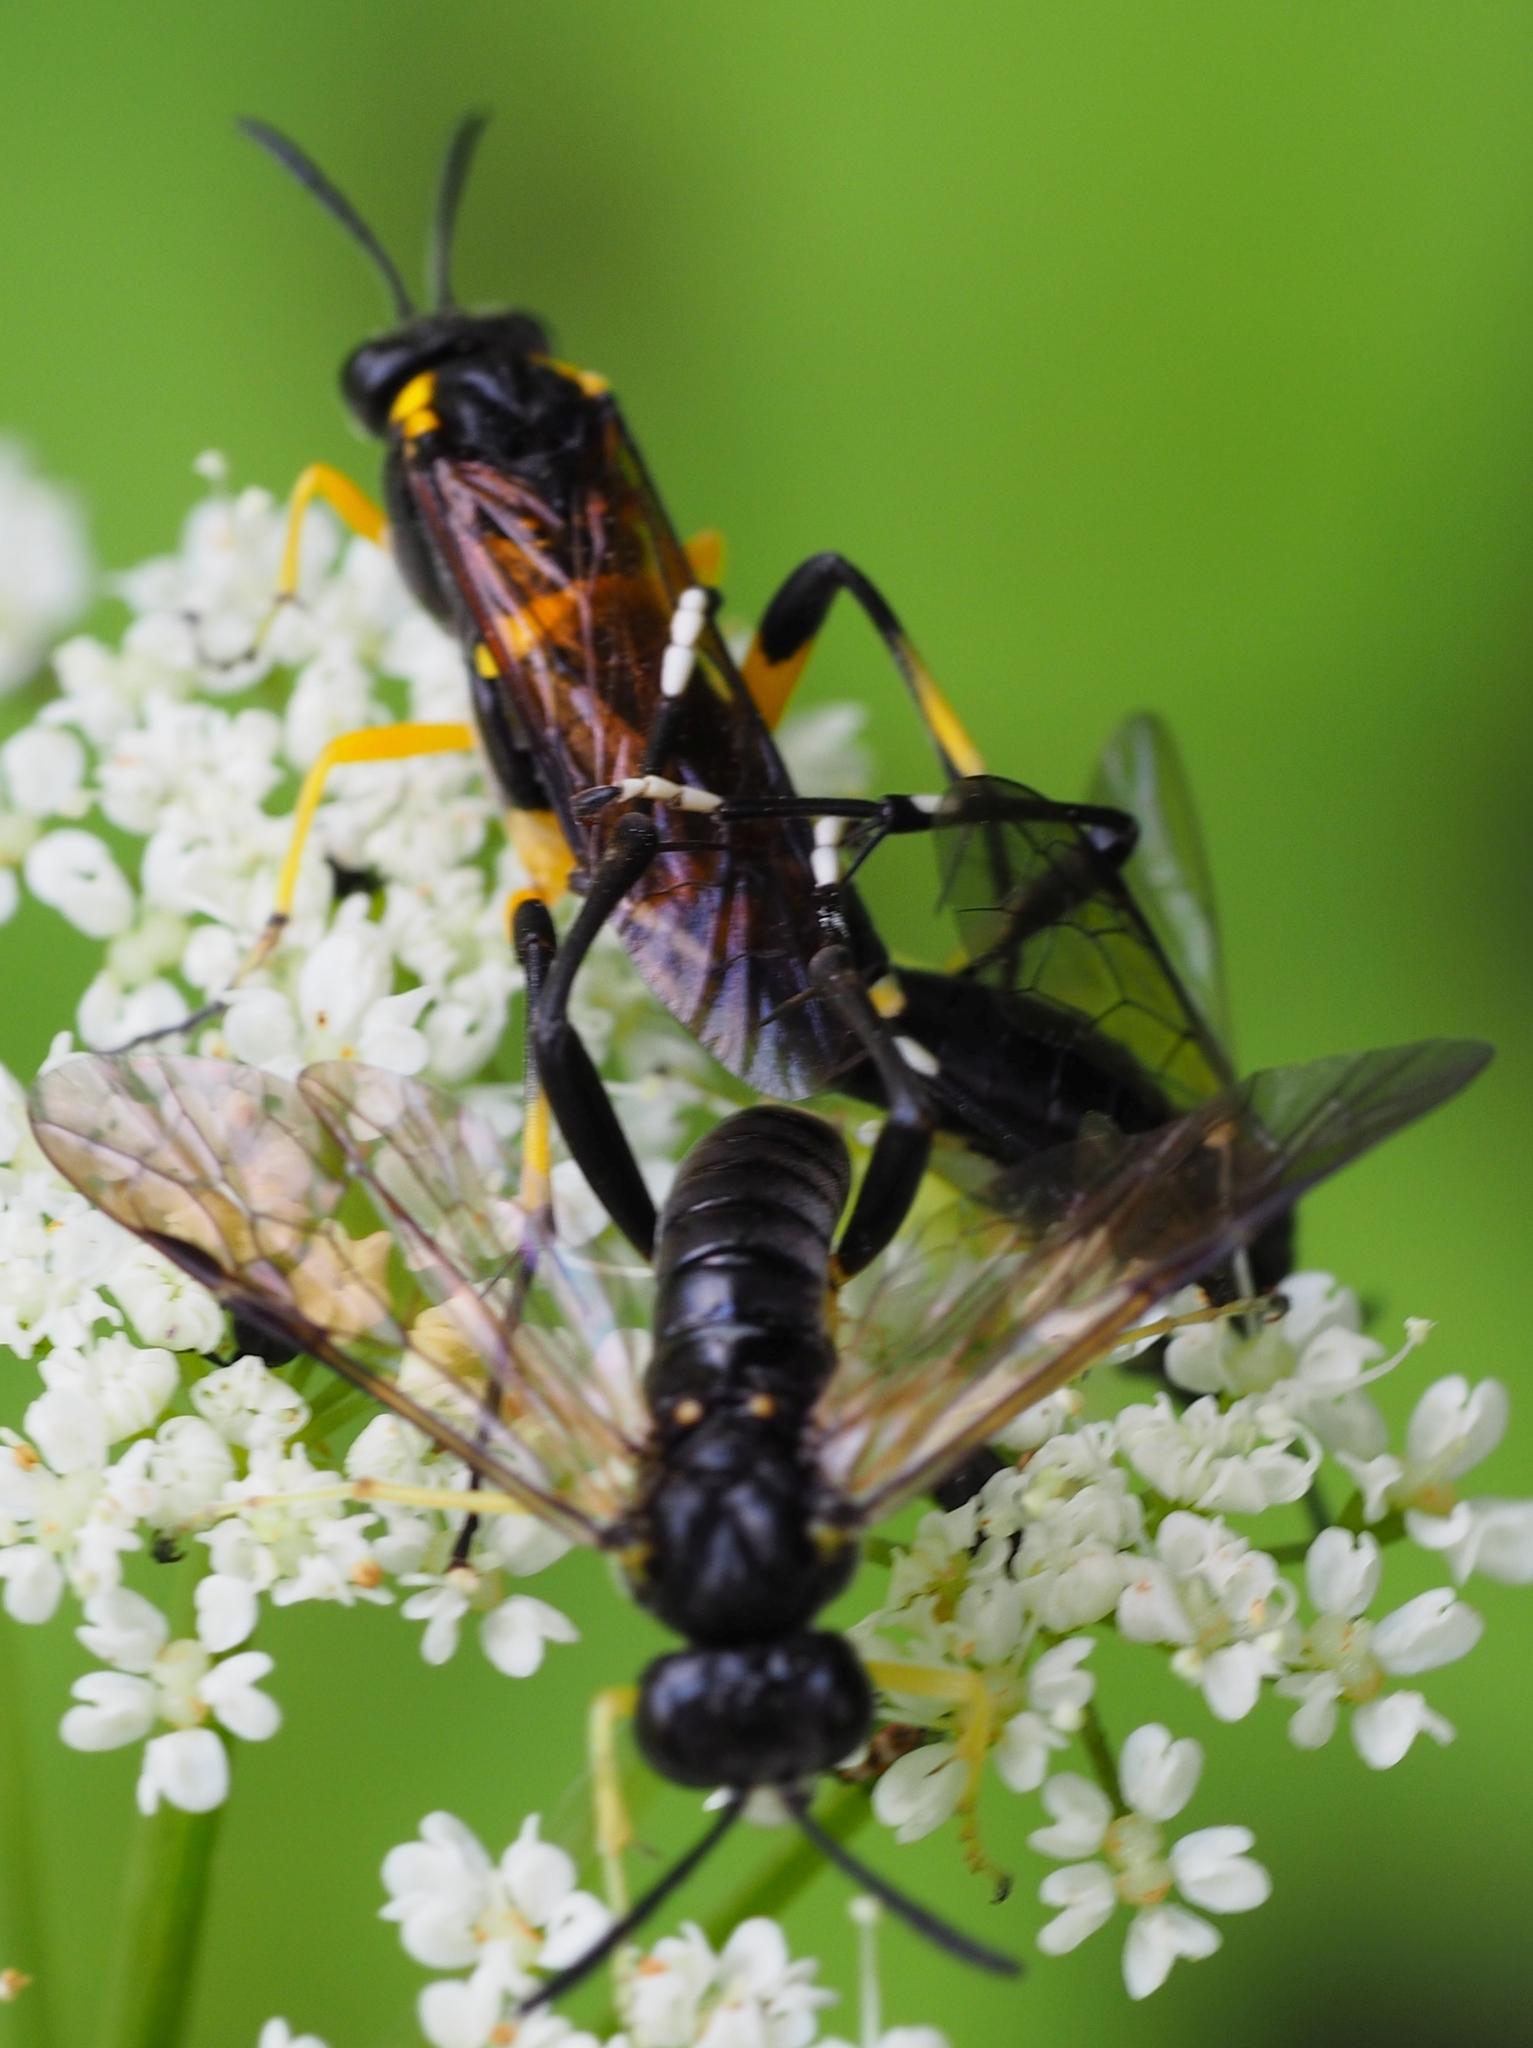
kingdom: Animalia
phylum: Arthropoda
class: Insecta
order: Hymenoptera
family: Tenthredinidae
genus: Macrophya
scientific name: Macrophya montana
